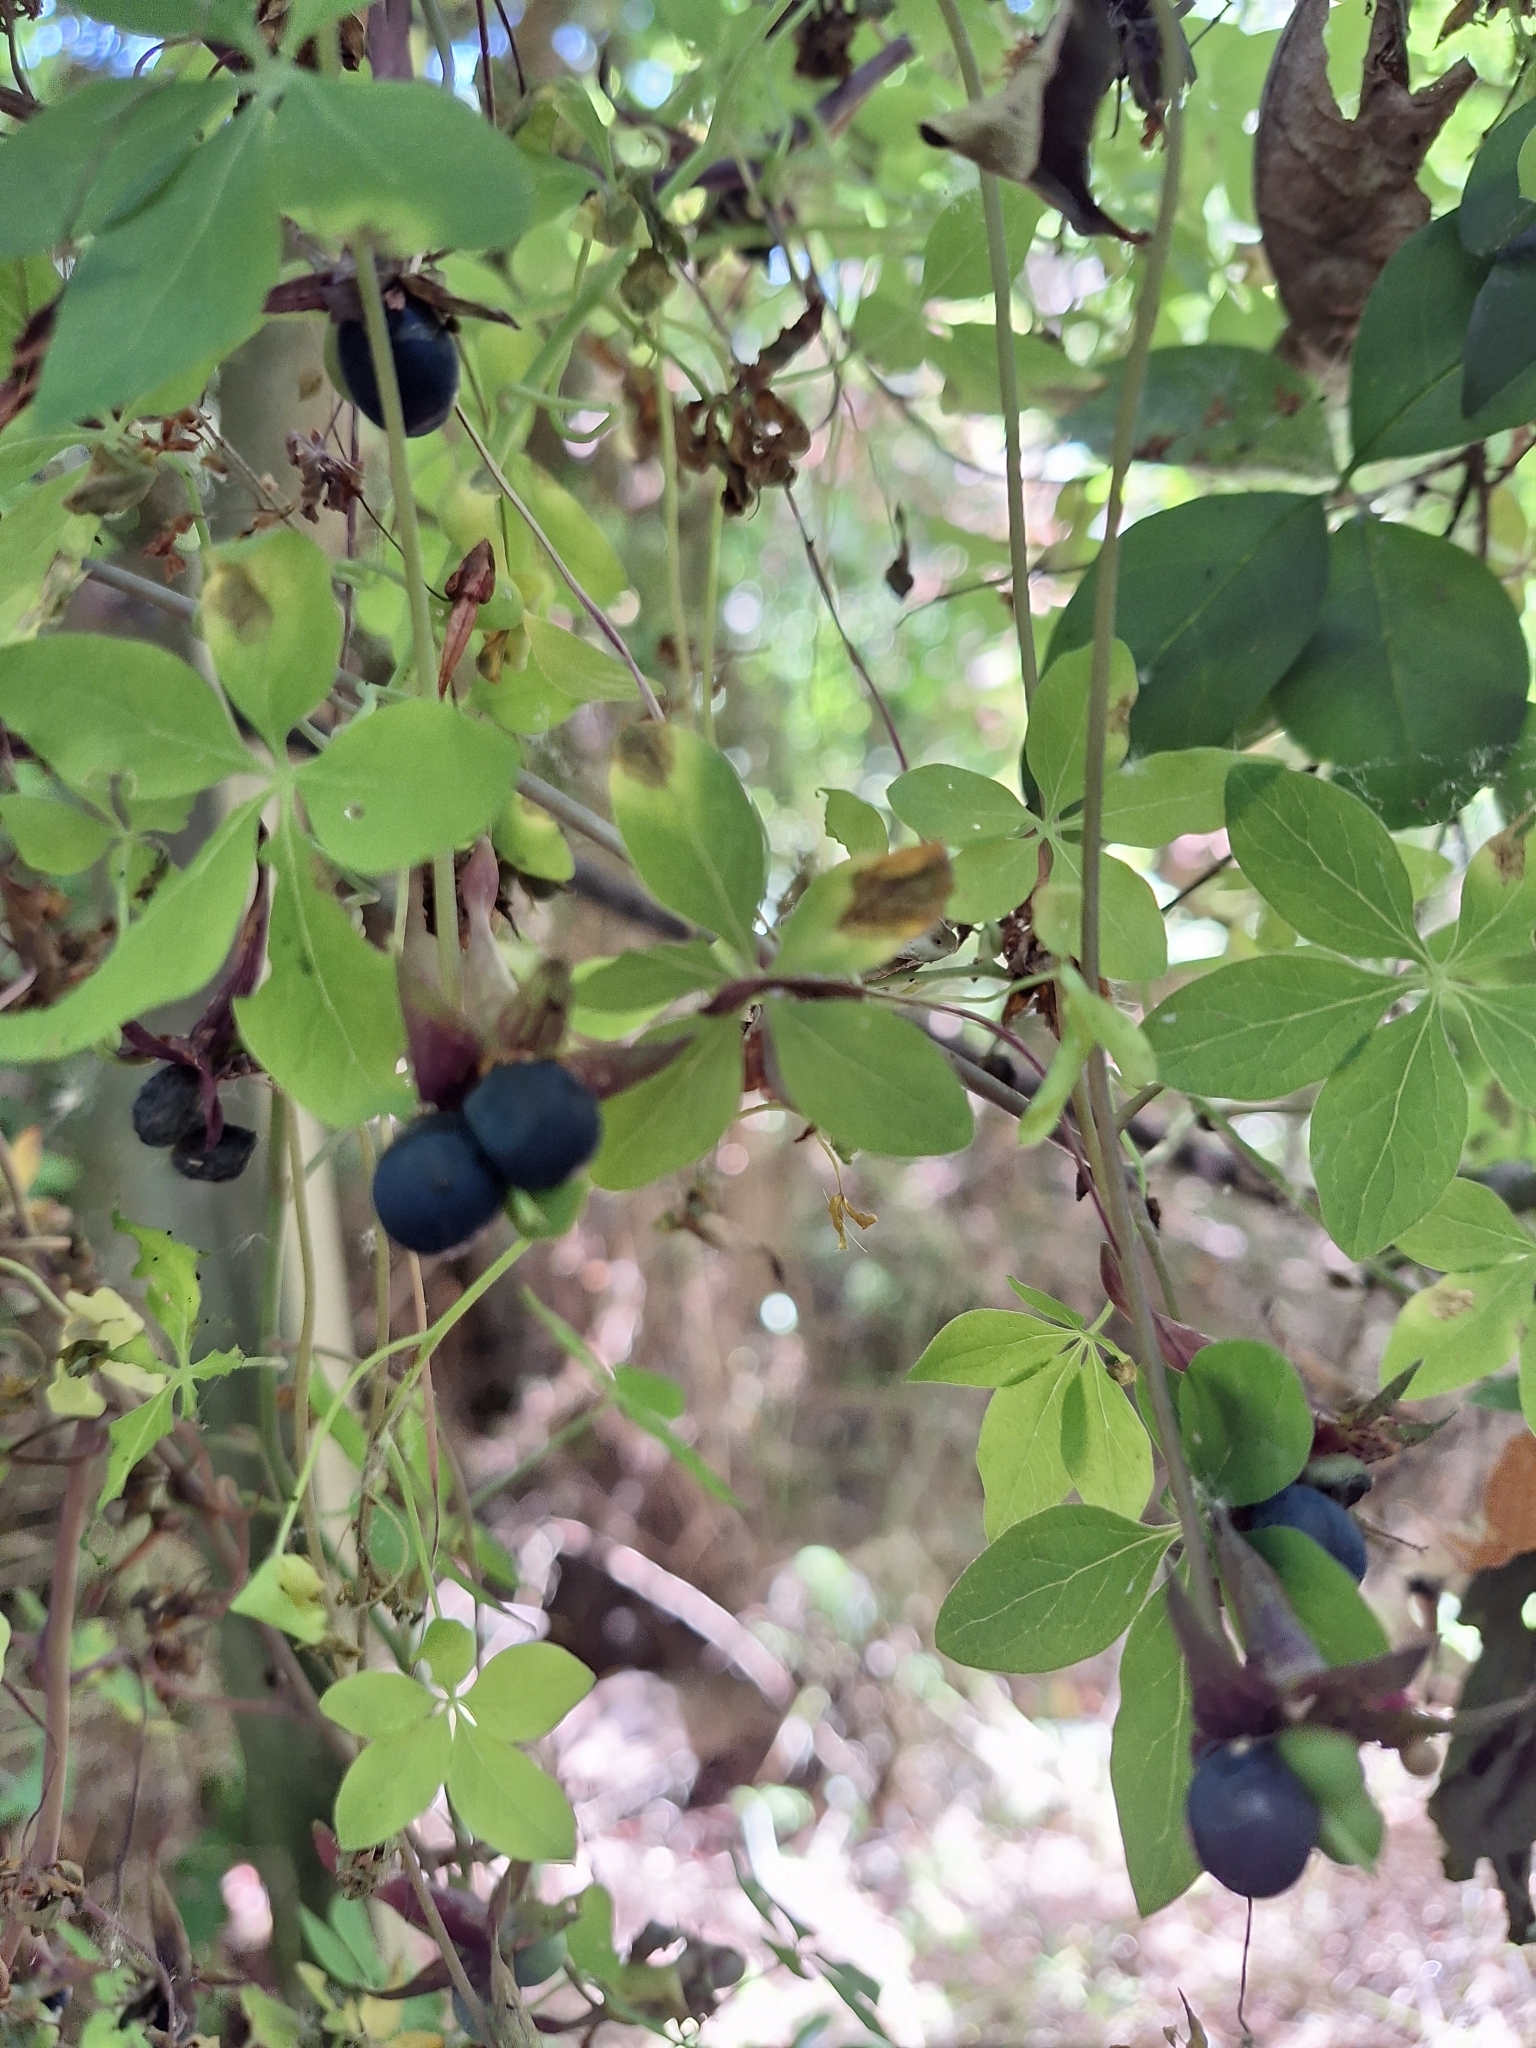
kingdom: Plantae
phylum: Tracheophyta
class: Magnoliopsida
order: Brassicales
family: Tropaeolaceae
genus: Tropaeolum
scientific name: Tropaeolum pentaphyllum
